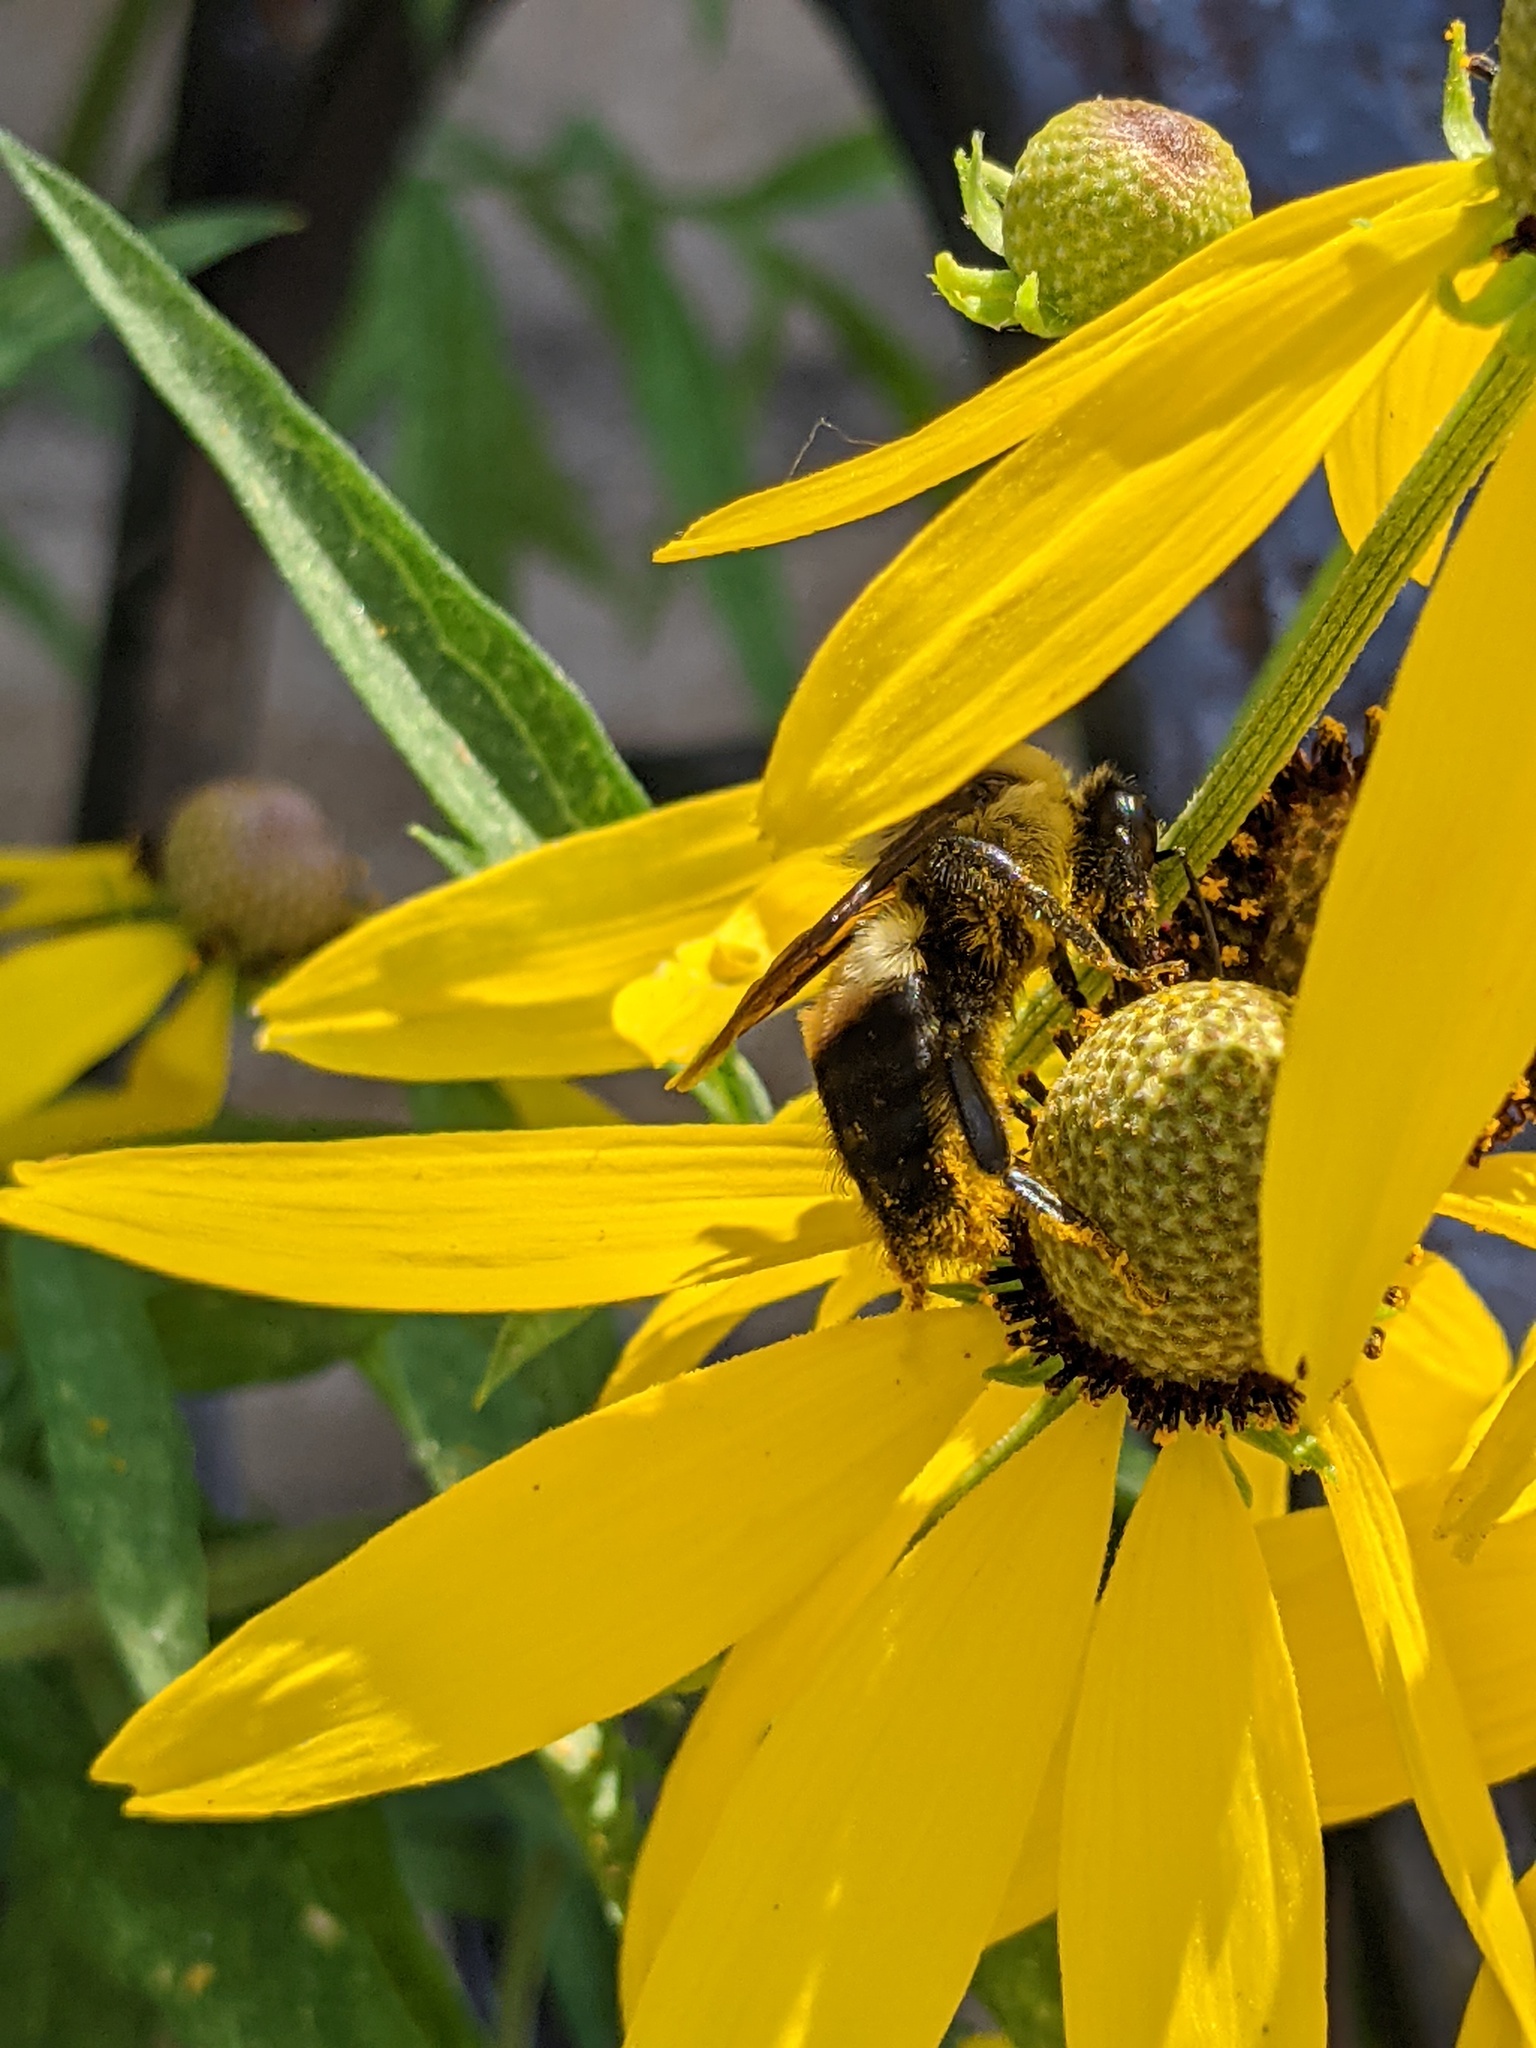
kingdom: Animalia
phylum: Arthropoda
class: Insecta
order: Hymenoptera
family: Apidae
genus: Bombus
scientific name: Bombus griseocollis
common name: Brown-belted bumble bee
